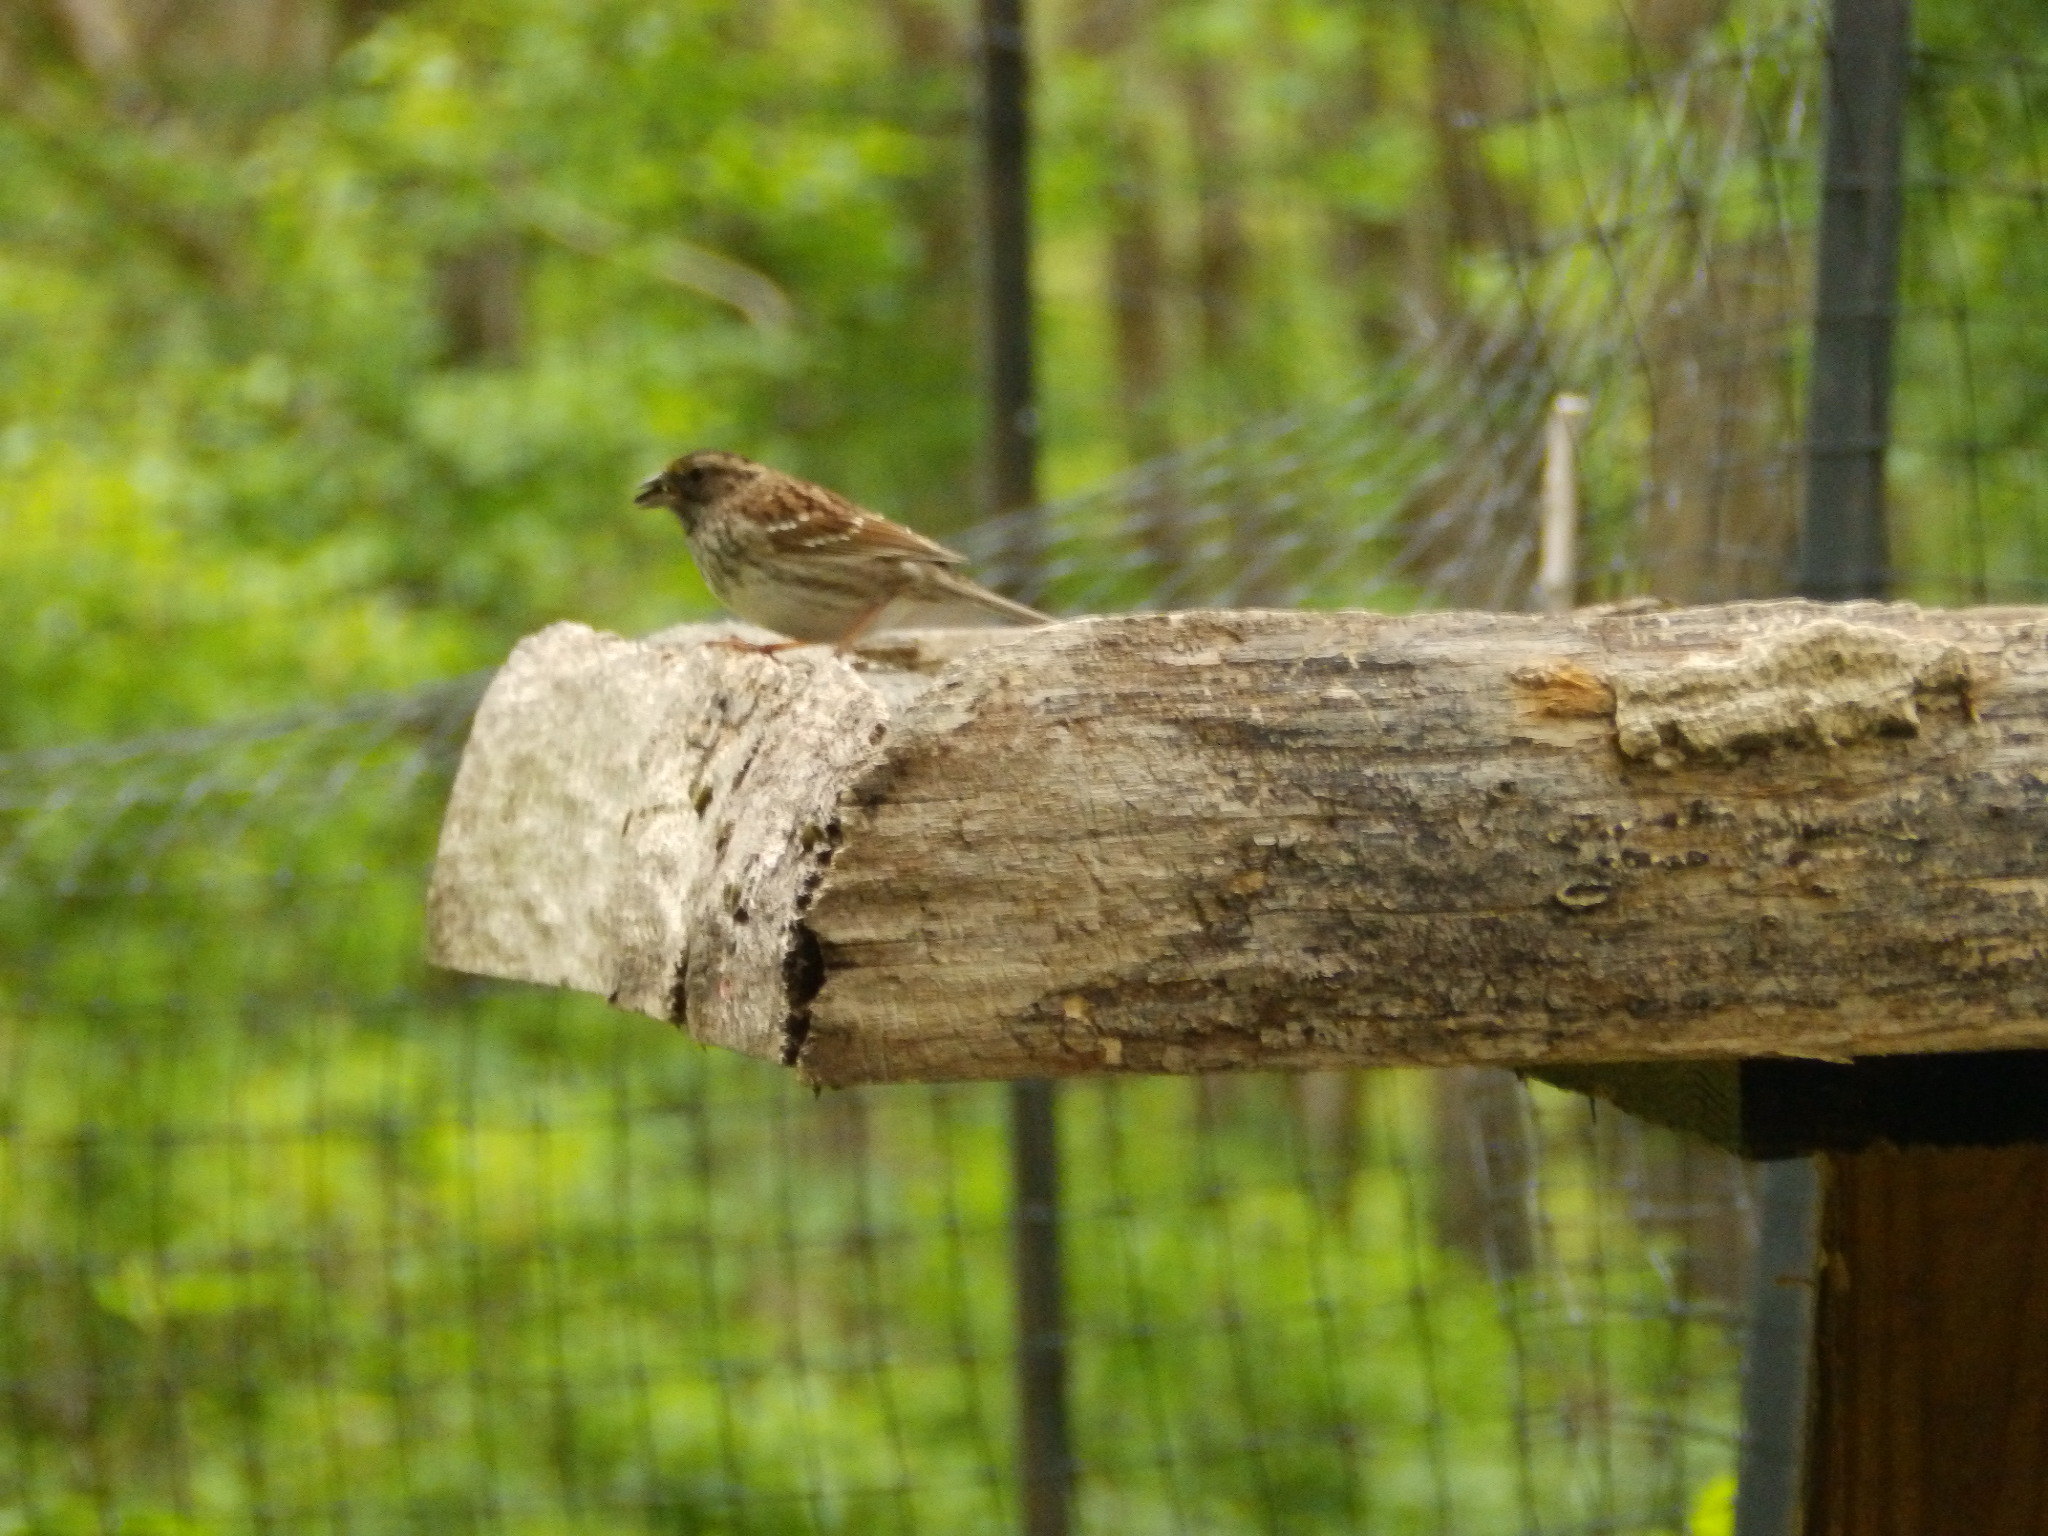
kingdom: Animalia
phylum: Chordata
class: Aves
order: Passeriformes
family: Passerellidae
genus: Zonotrichia
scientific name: Zonotrichia albicollis
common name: White-throated sparrow
